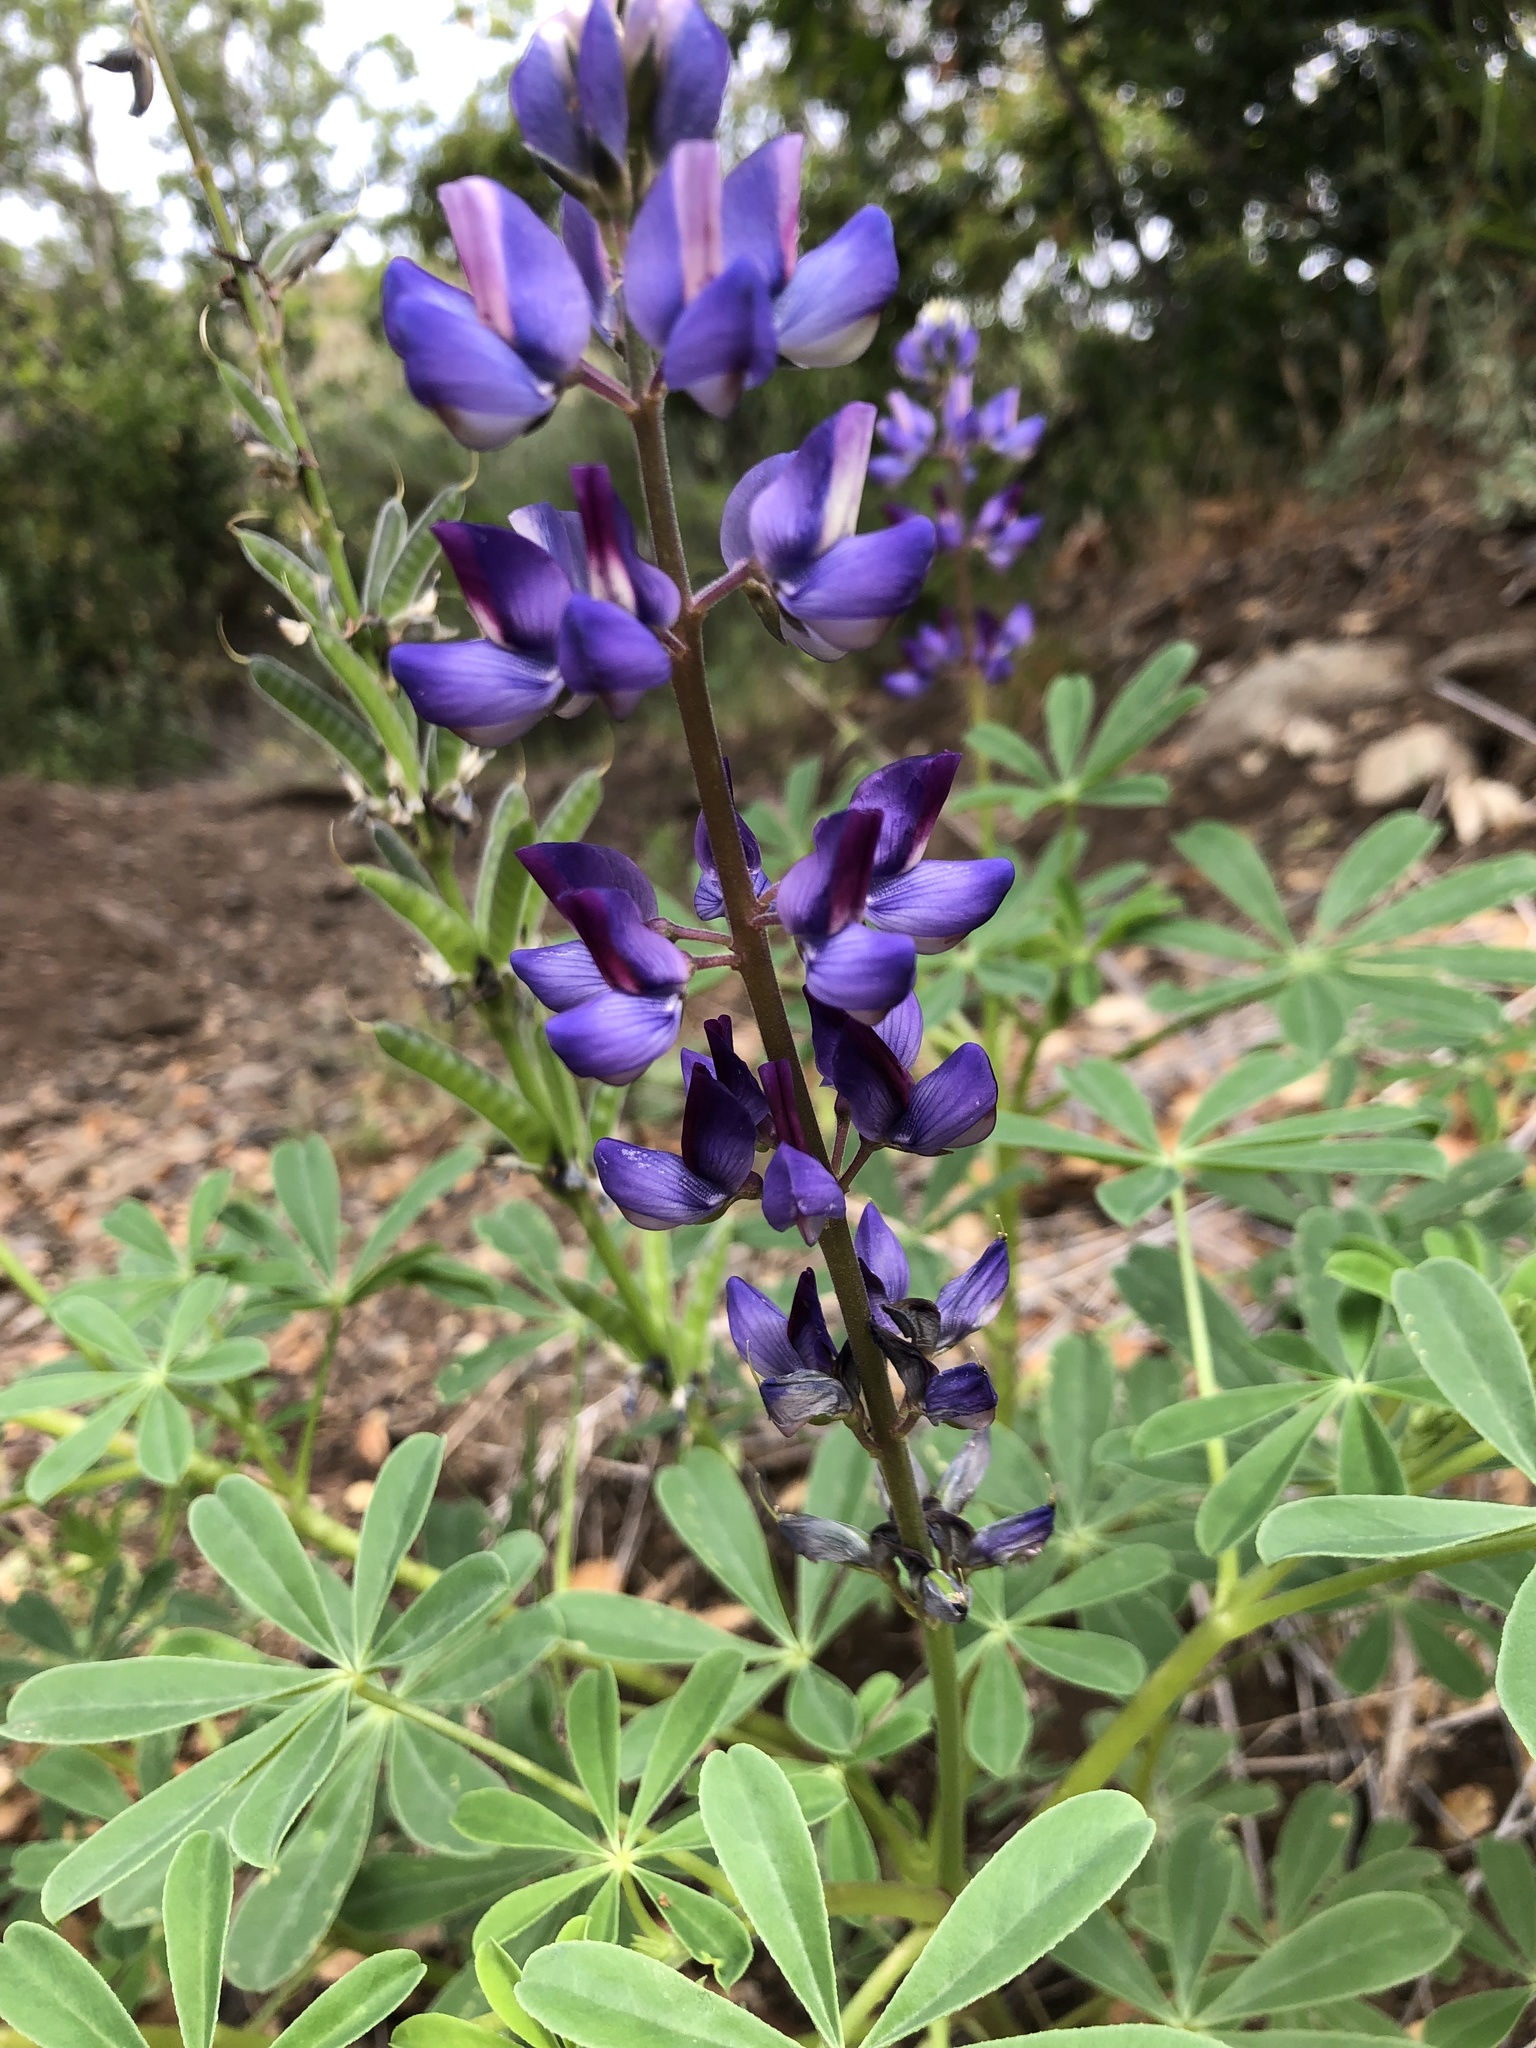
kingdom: Plantae
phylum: Tracheophyta
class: Magnoliopsida
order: Fabales
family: Fabaceae
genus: Lupinus
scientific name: Lupinus succulentus
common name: Arroyo lupine
